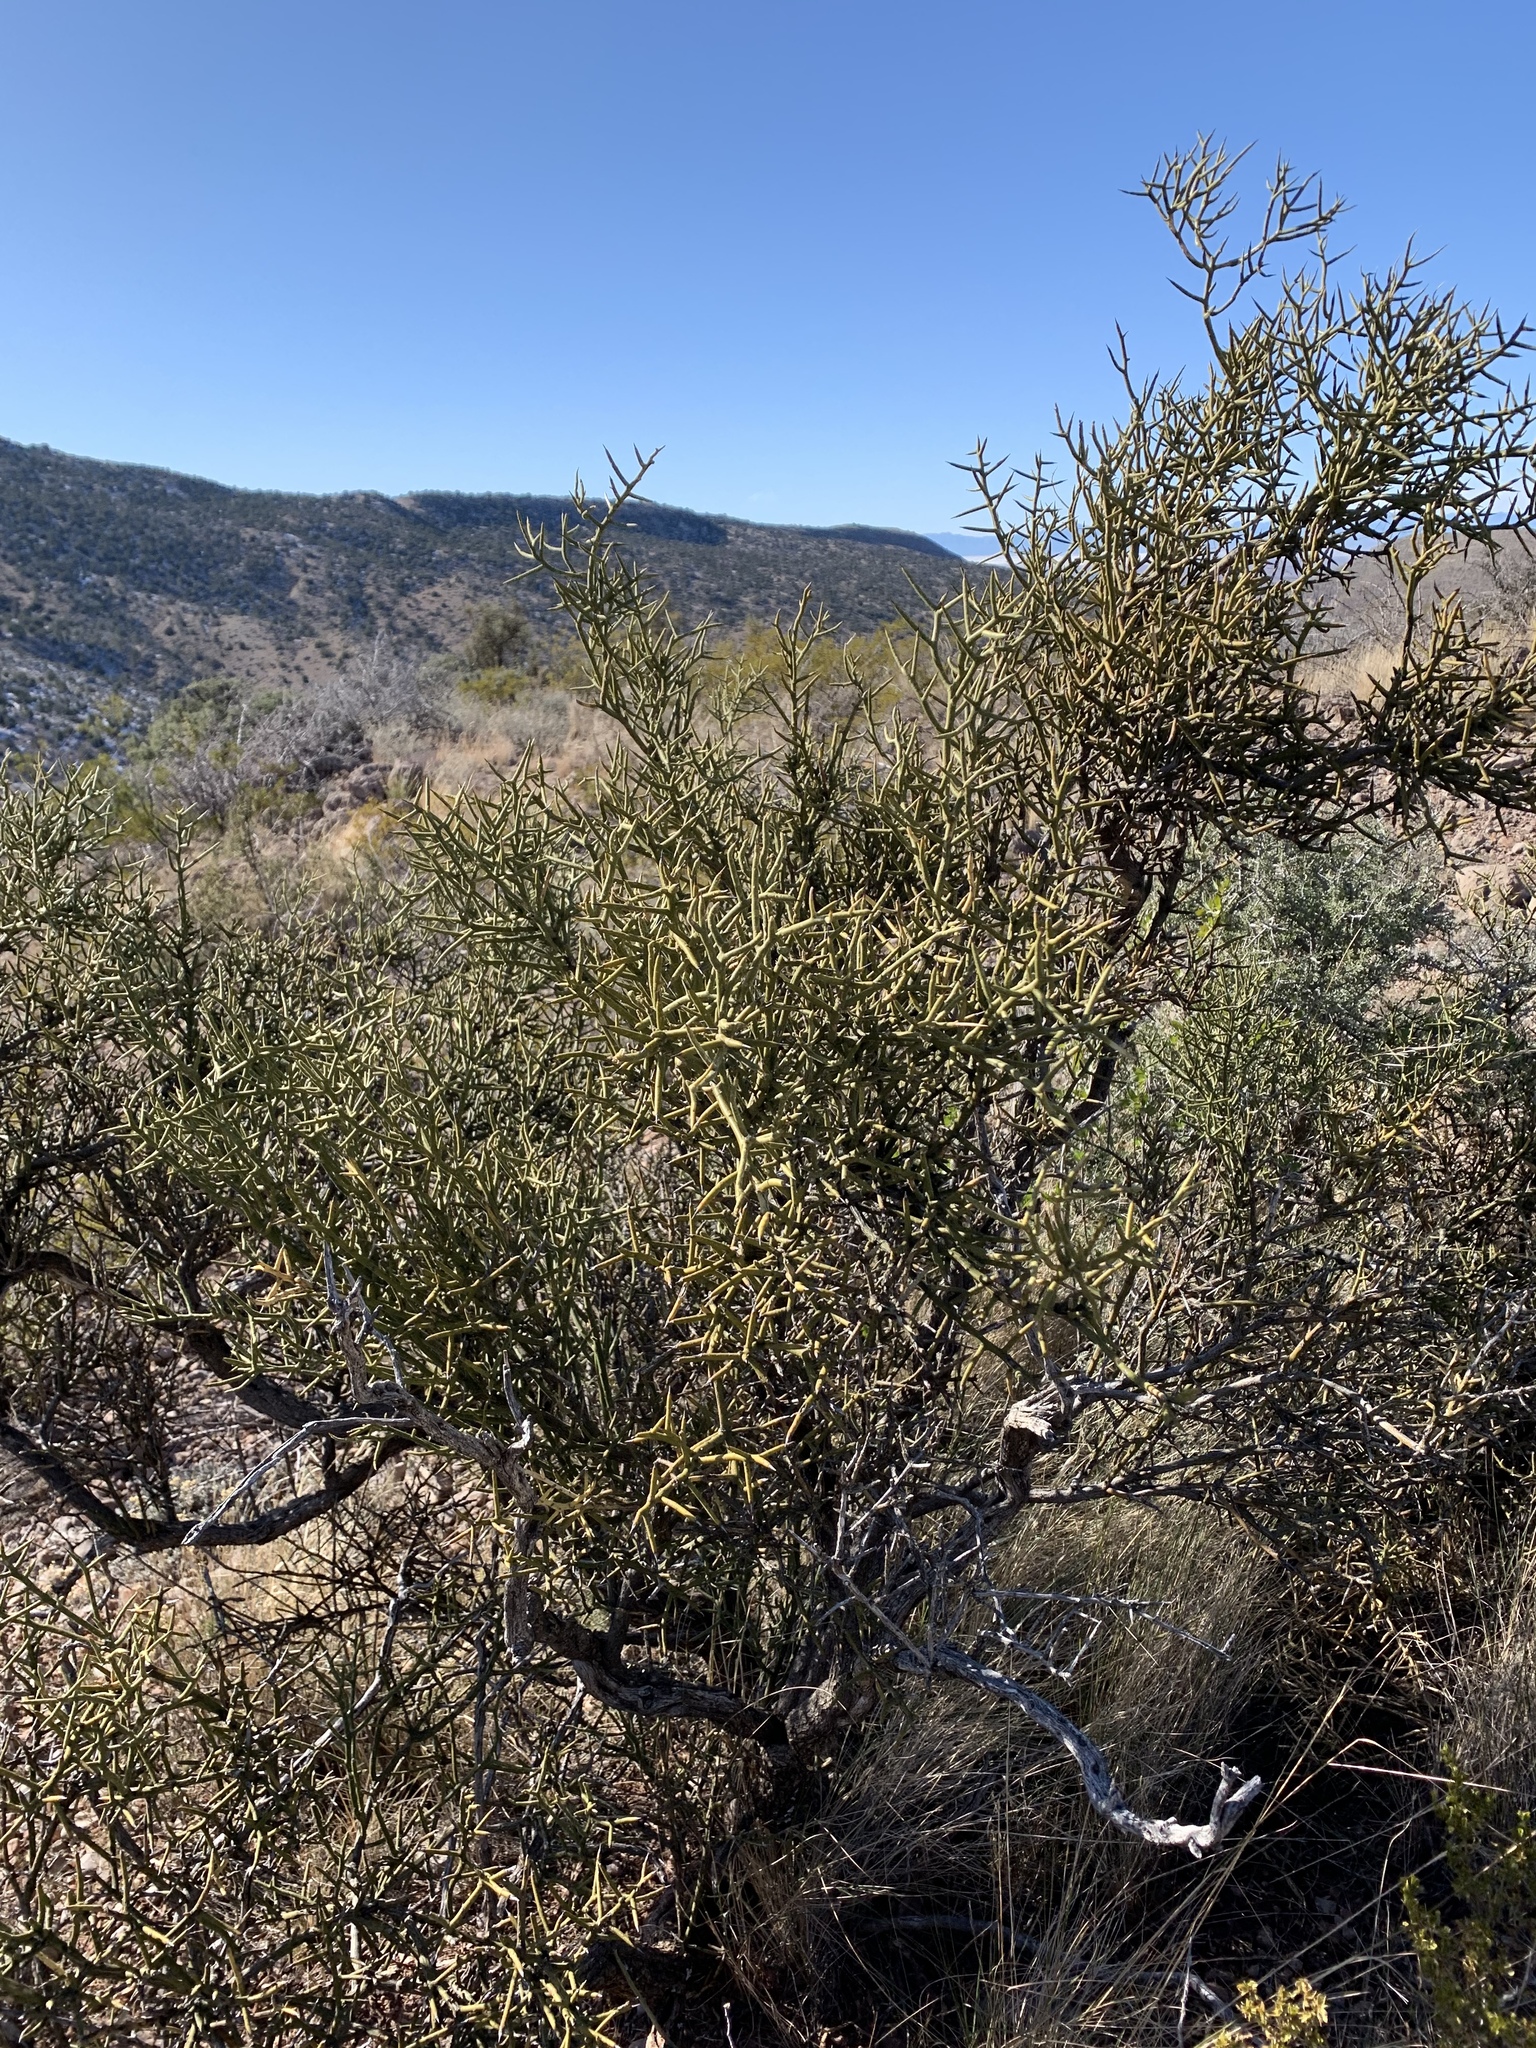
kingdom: Plantae
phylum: Tracheophyta
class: Magnoliopsida
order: Brassicales
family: Koeberliniaceae
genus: Koeberlinia
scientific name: Koeberlinia spinosa
